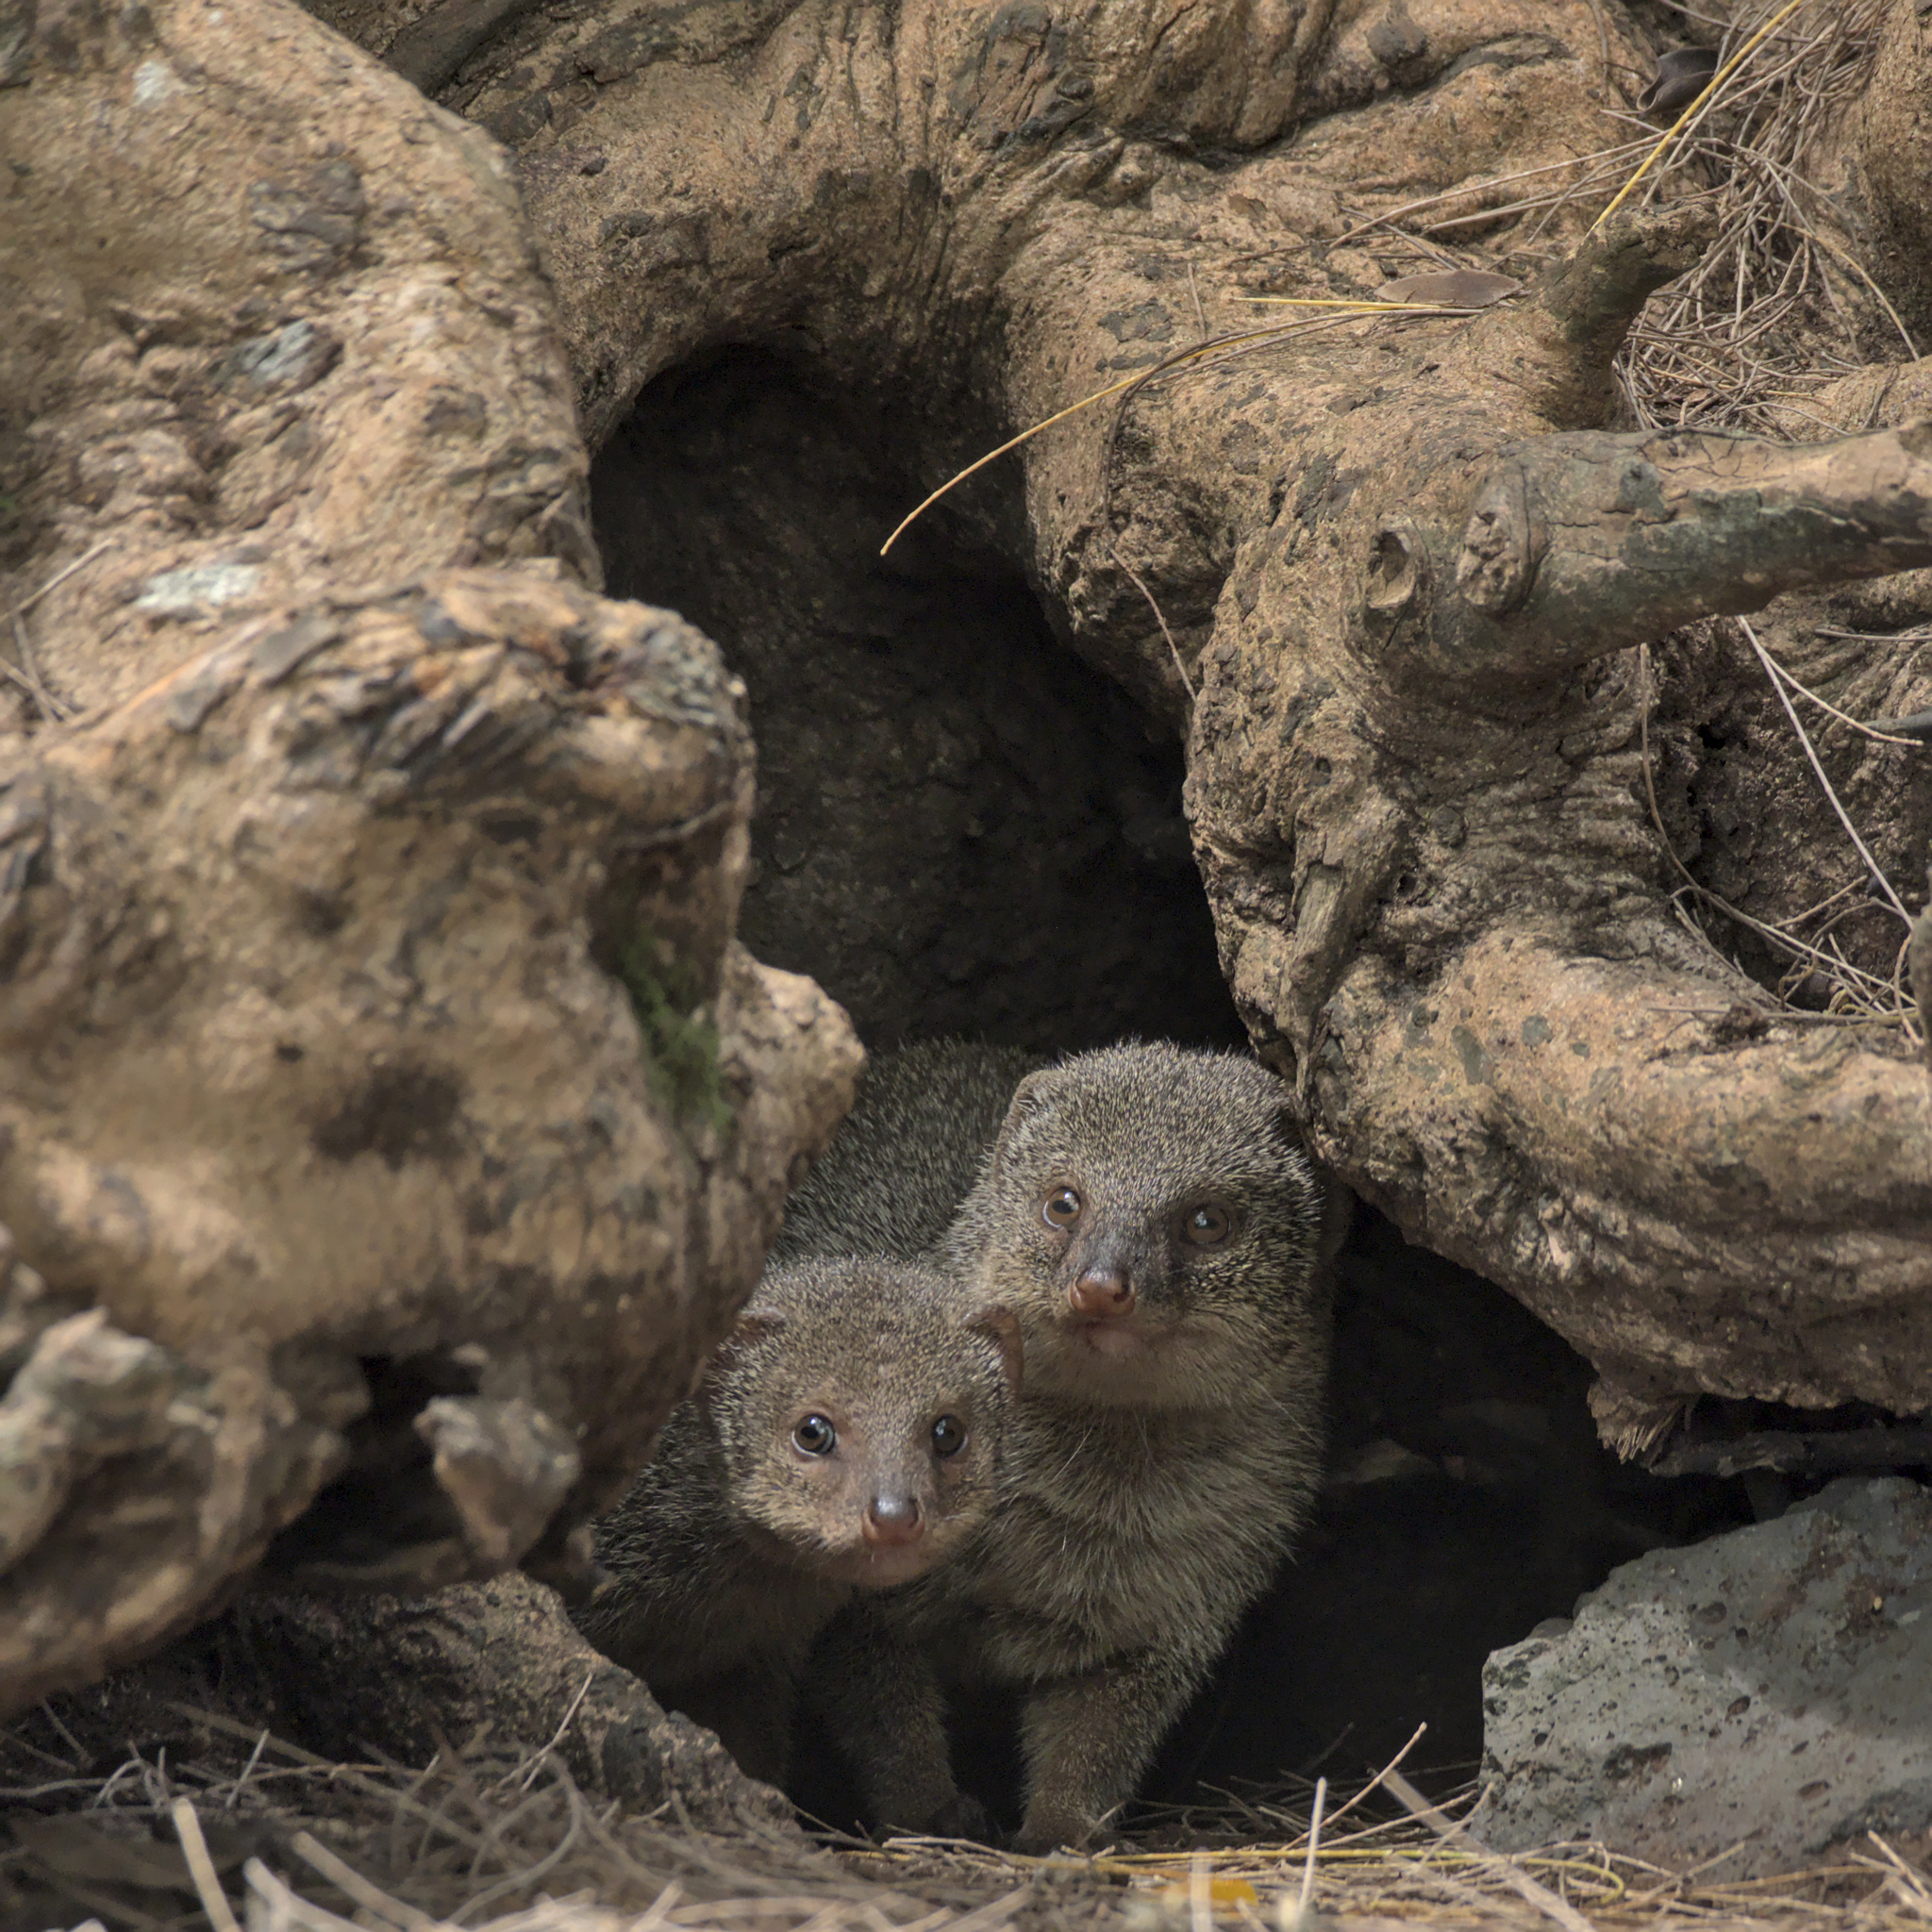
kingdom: Animalia
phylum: Chordata
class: Mammalia
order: Carnivora
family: Herpestidae
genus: Herpestes
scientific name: Herpestes javanicus
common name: Small asian mongoose
